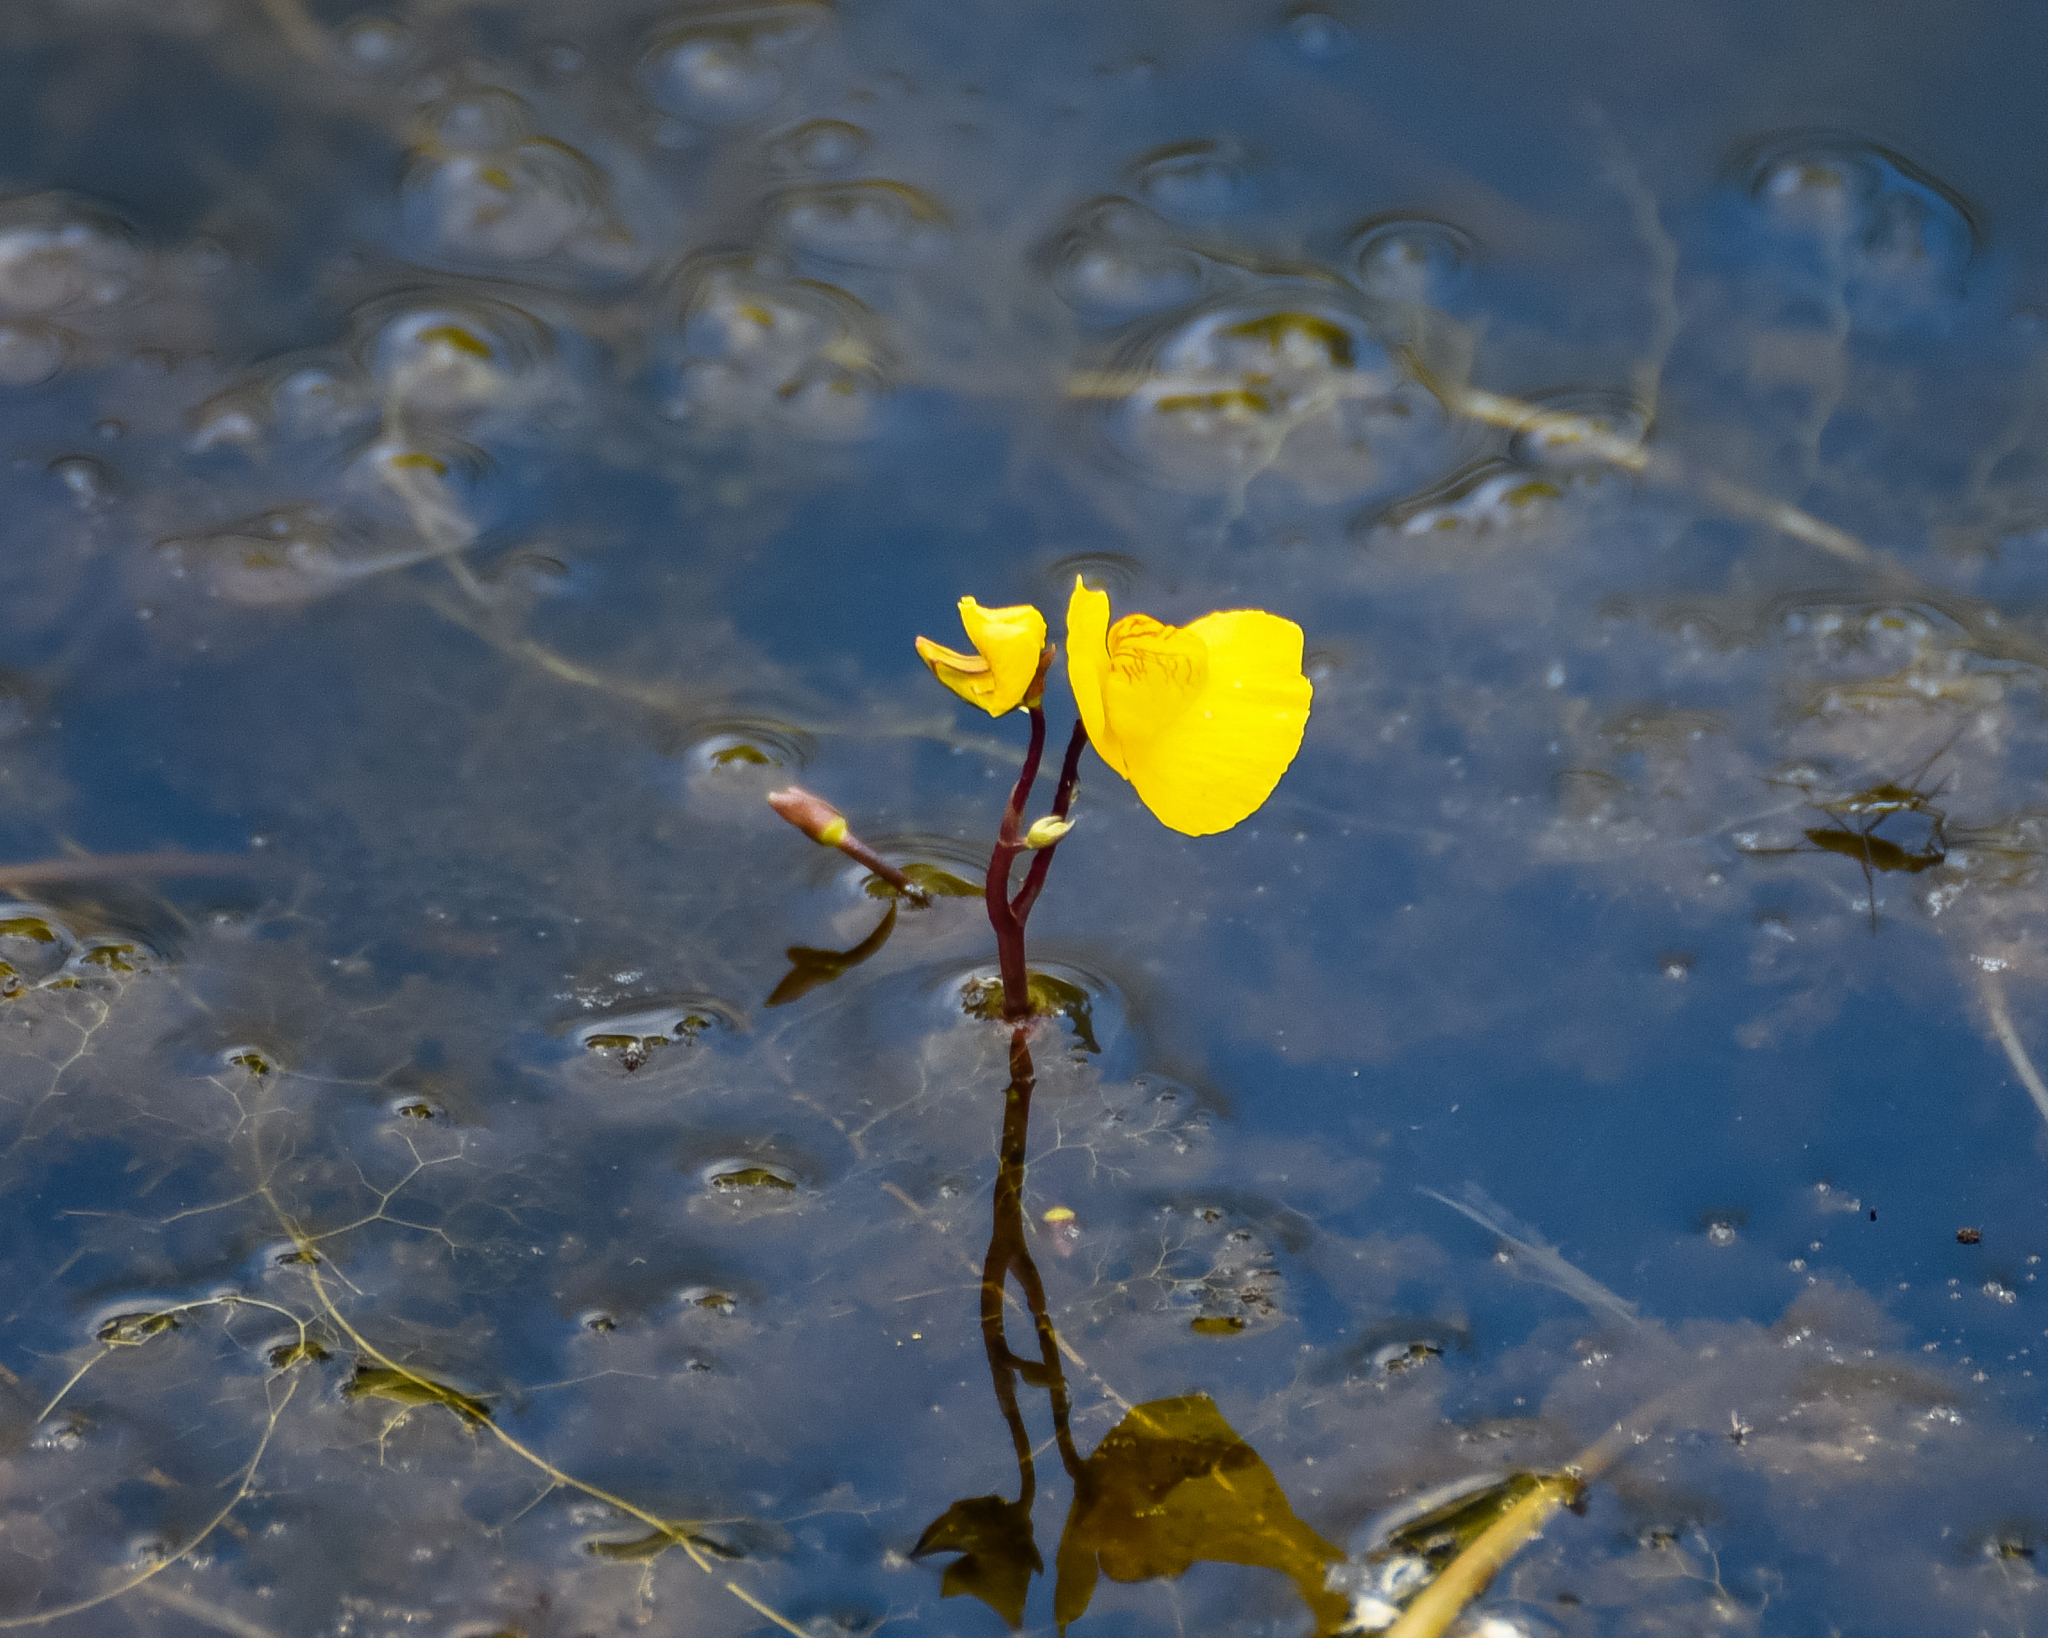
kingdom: Plantae
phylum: Tracheophyta
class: Magnoliopsida
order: Lamiales
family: Lentibulariaceae
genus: Utricularia
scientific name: Utricularia australis
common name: Bladderwort
